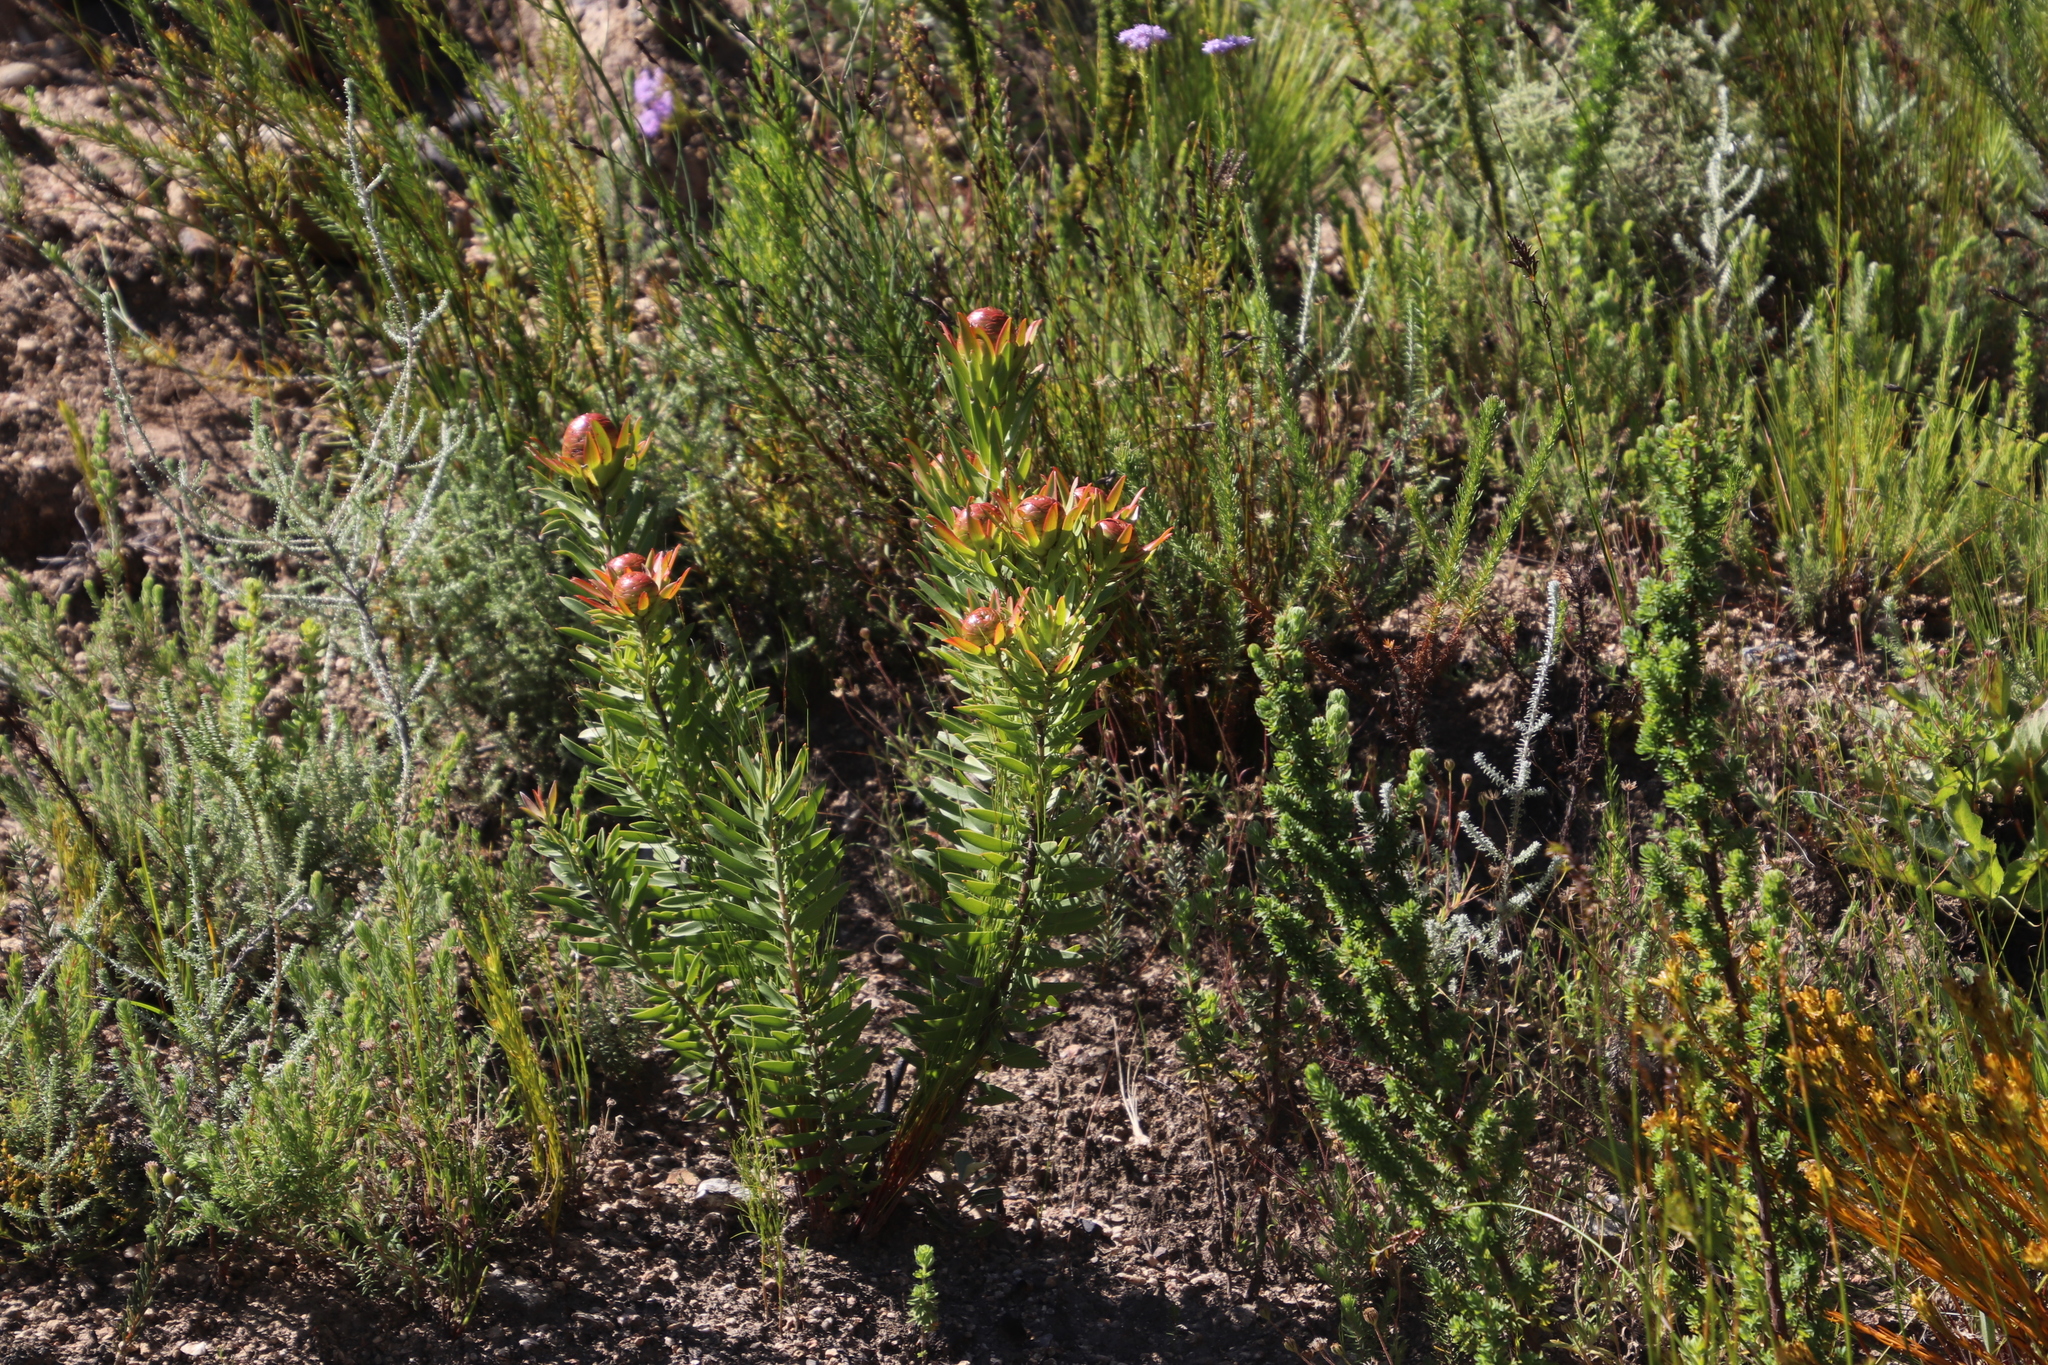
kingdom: Plantae
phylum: Tracheophyta
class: Magnoliopsida
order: Proteales
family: Proteaceae
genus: Leucadendron
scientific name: Leucadendron spissifolium
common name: Spear-leaf conebush
